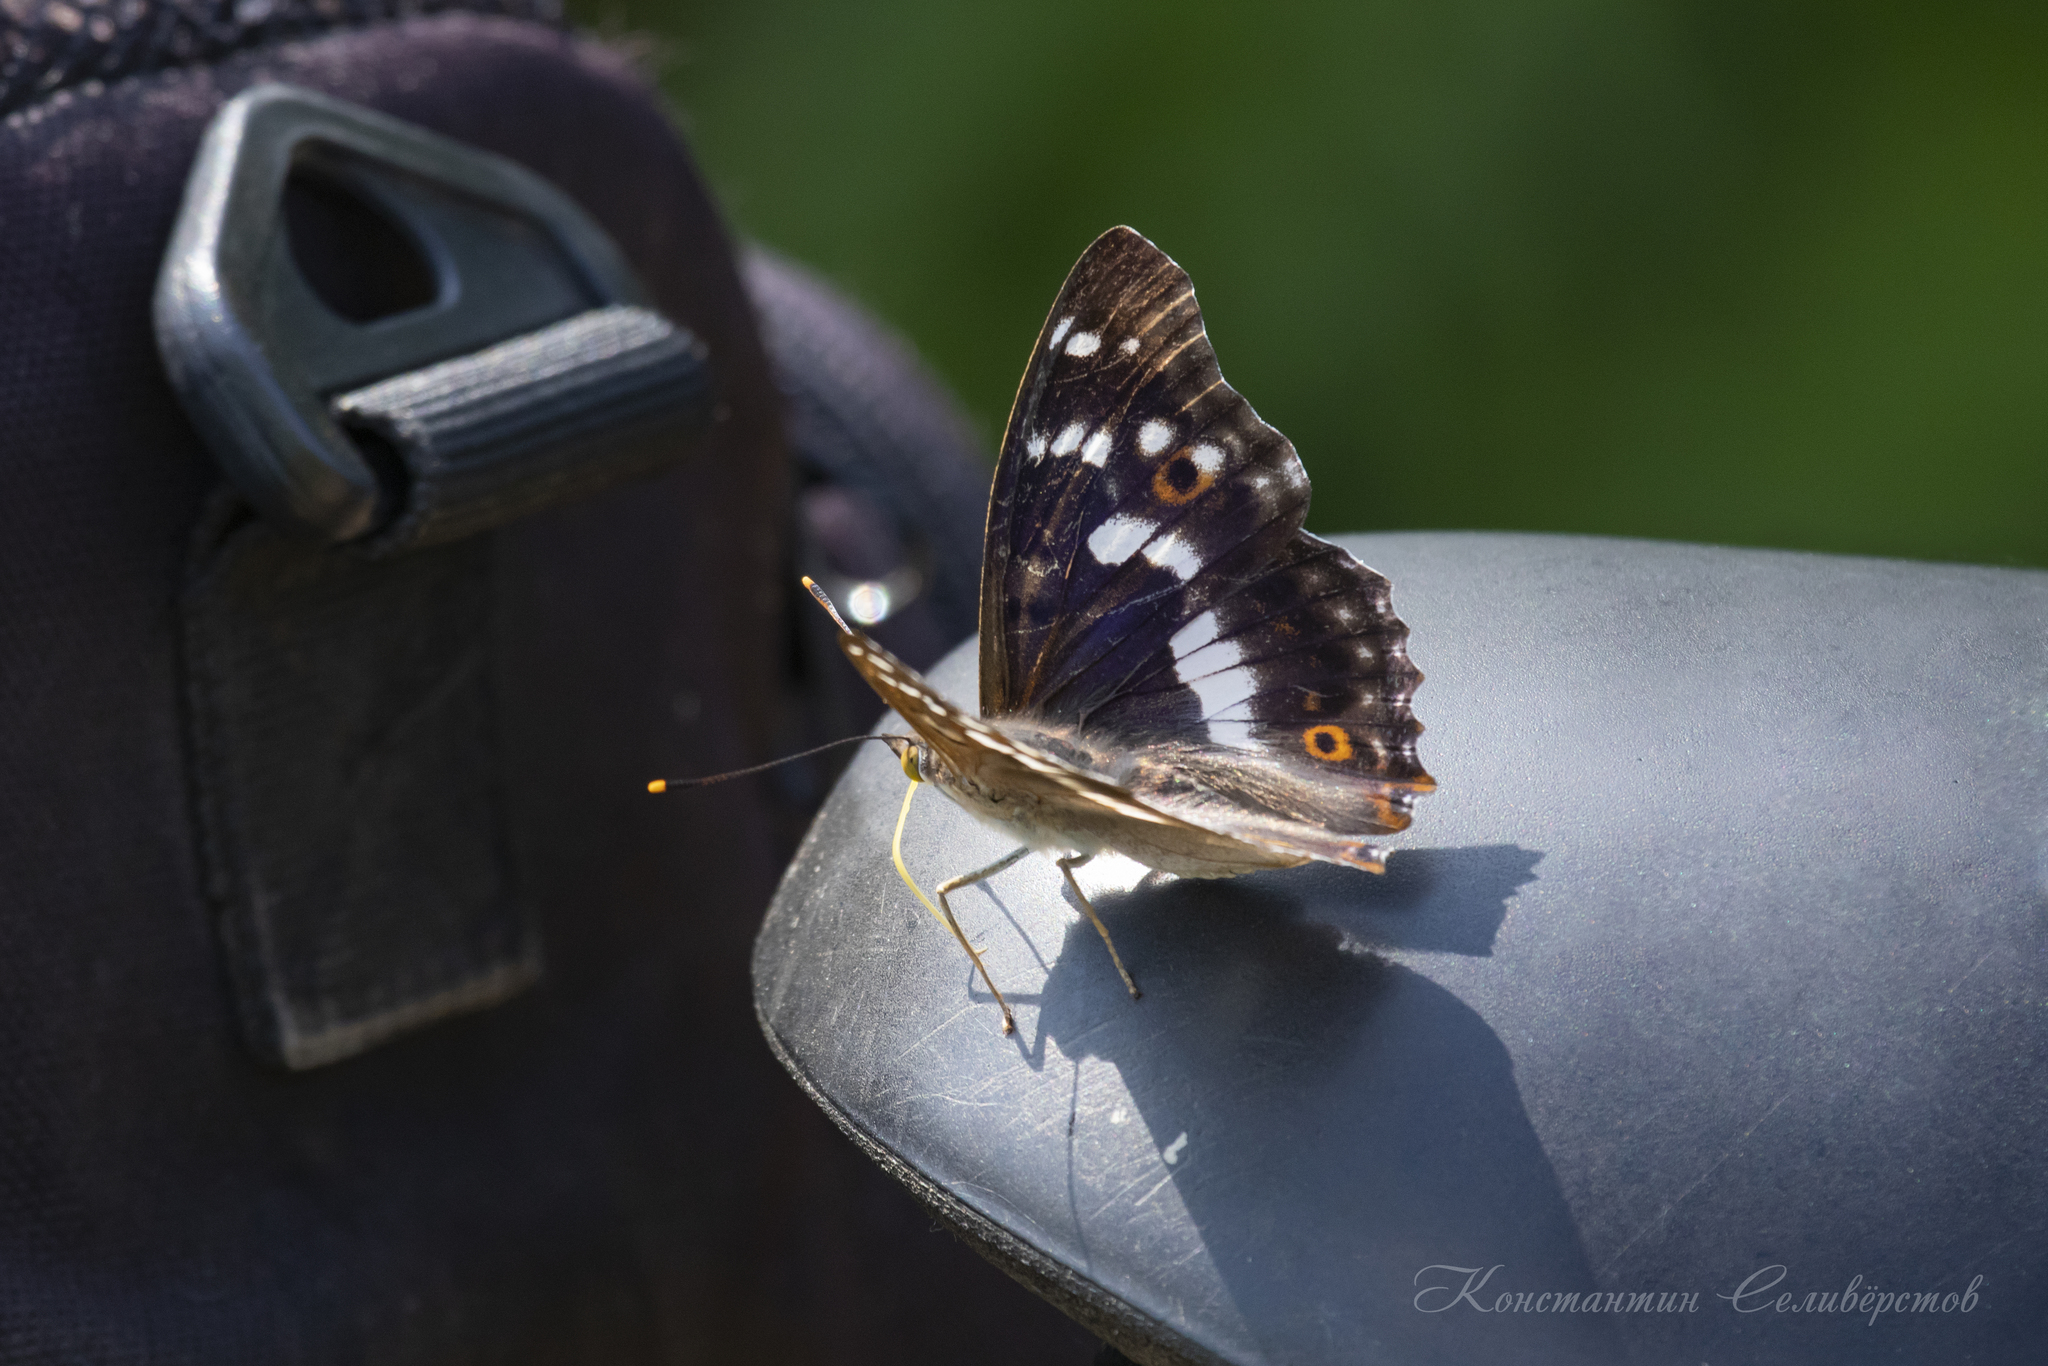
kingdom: Animalia
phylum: Arthropoda
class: Insecta
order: Lepidoptera
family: Nymphalidae
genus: Apatura
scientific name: Apatura ilia
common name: Lesser purple emperor
